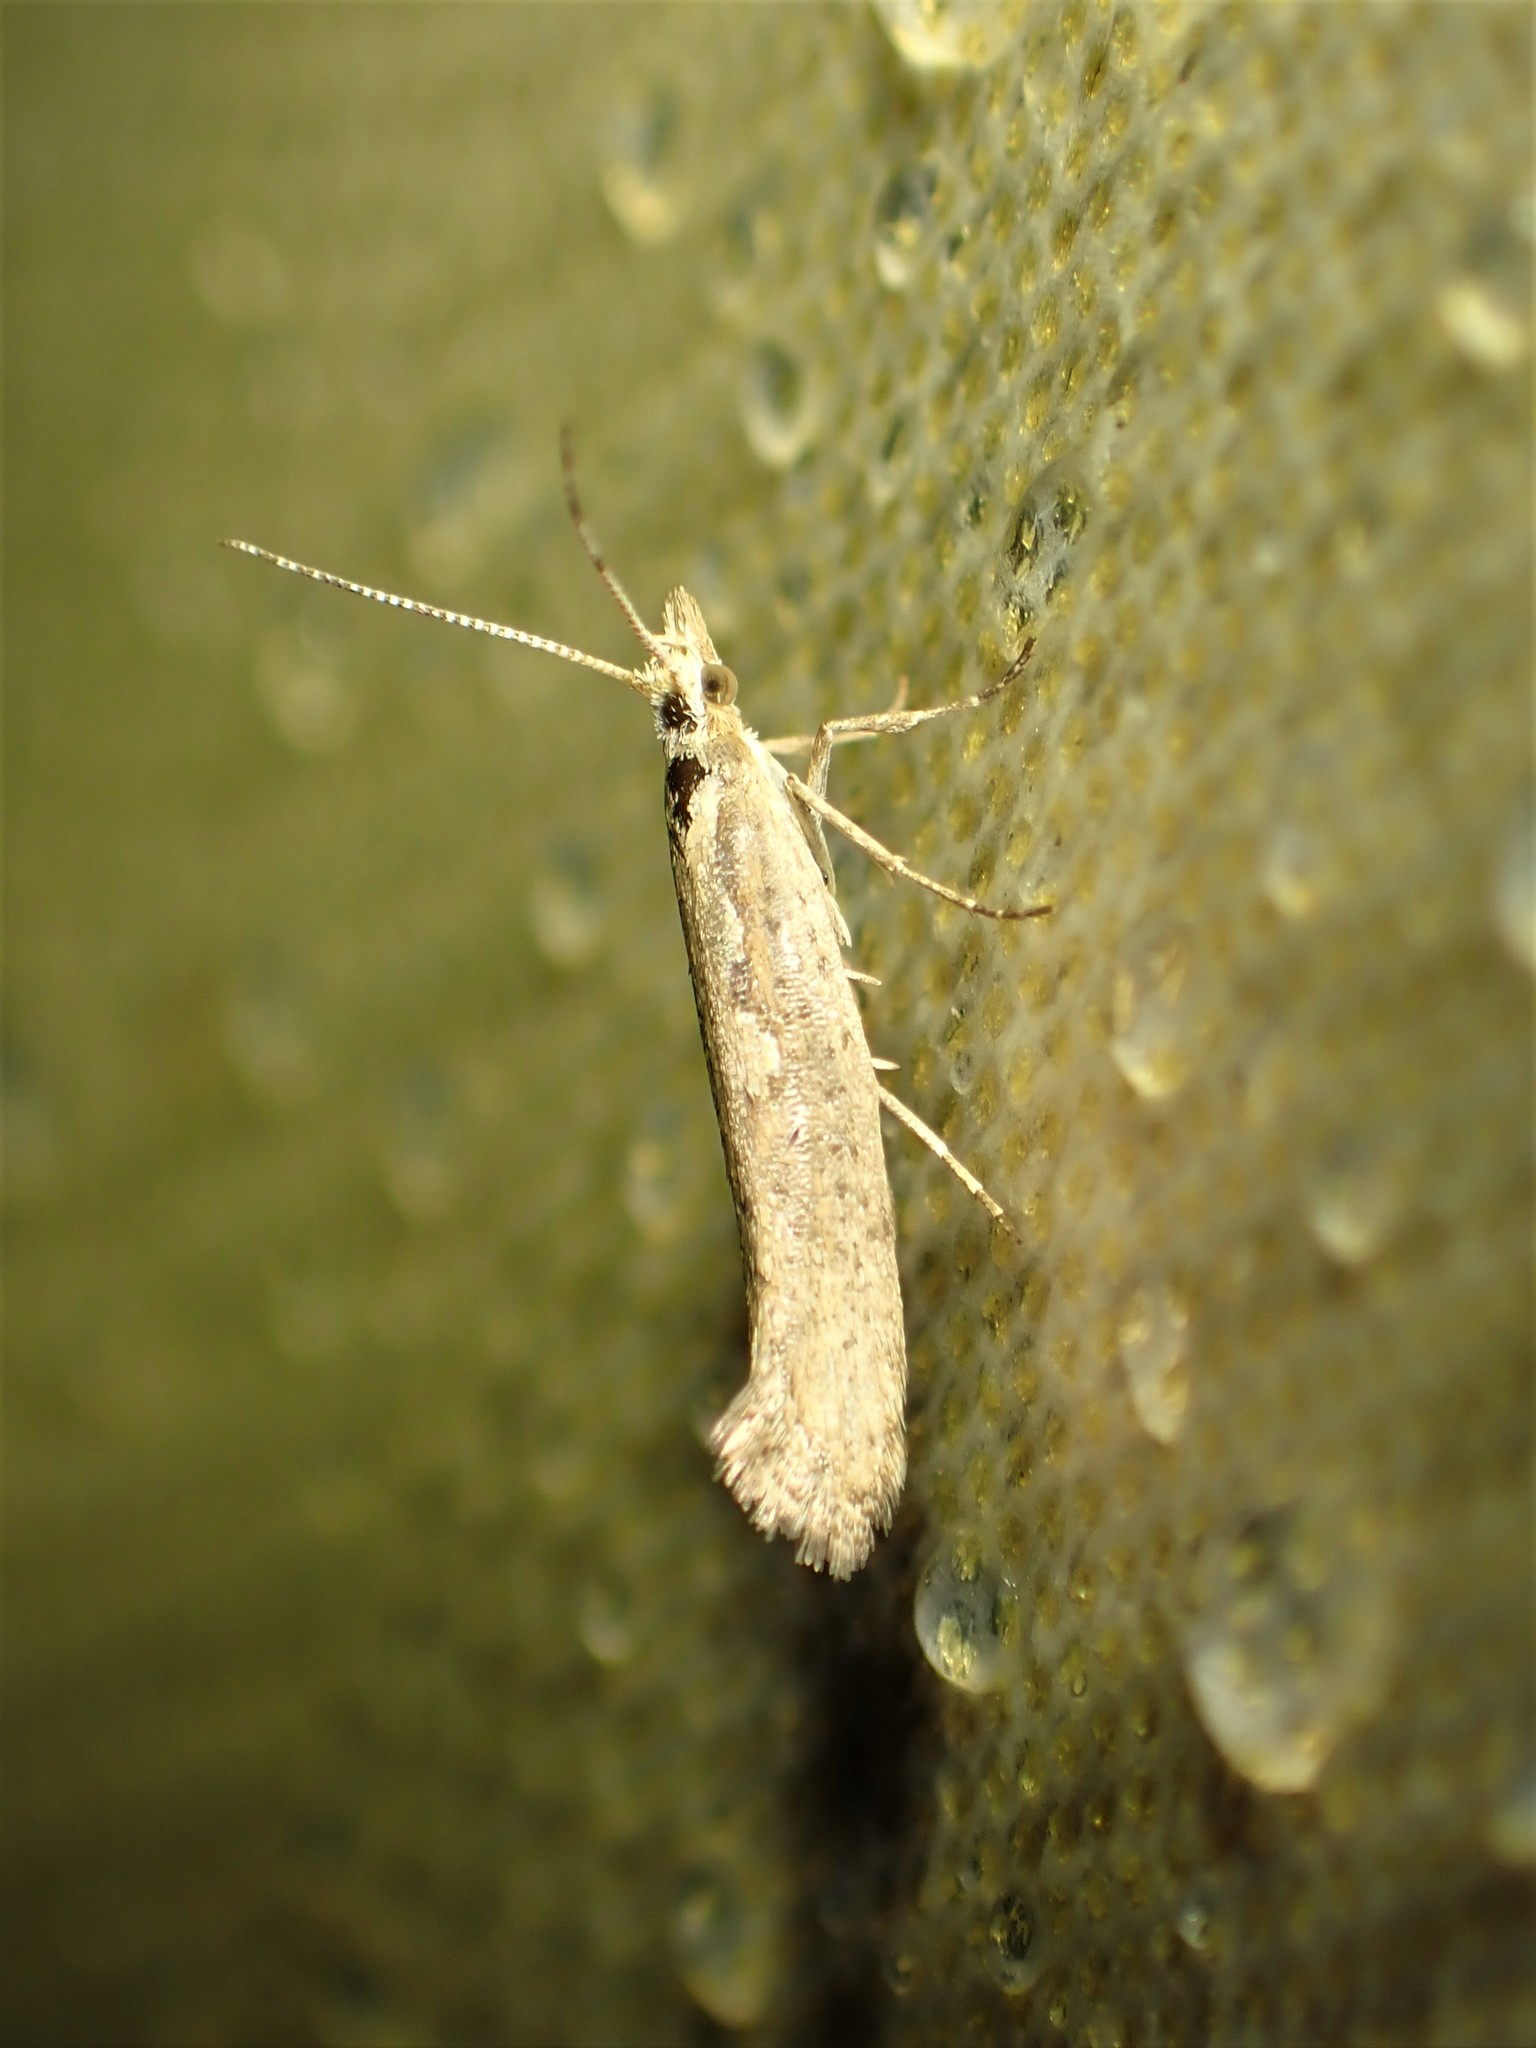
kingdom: Animalia
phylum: Arthropoda
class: Insecta
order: Lepidoptera
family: Plutellidae
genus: Plutella
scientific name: Plutella xylostella
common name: Diamond-back moth
